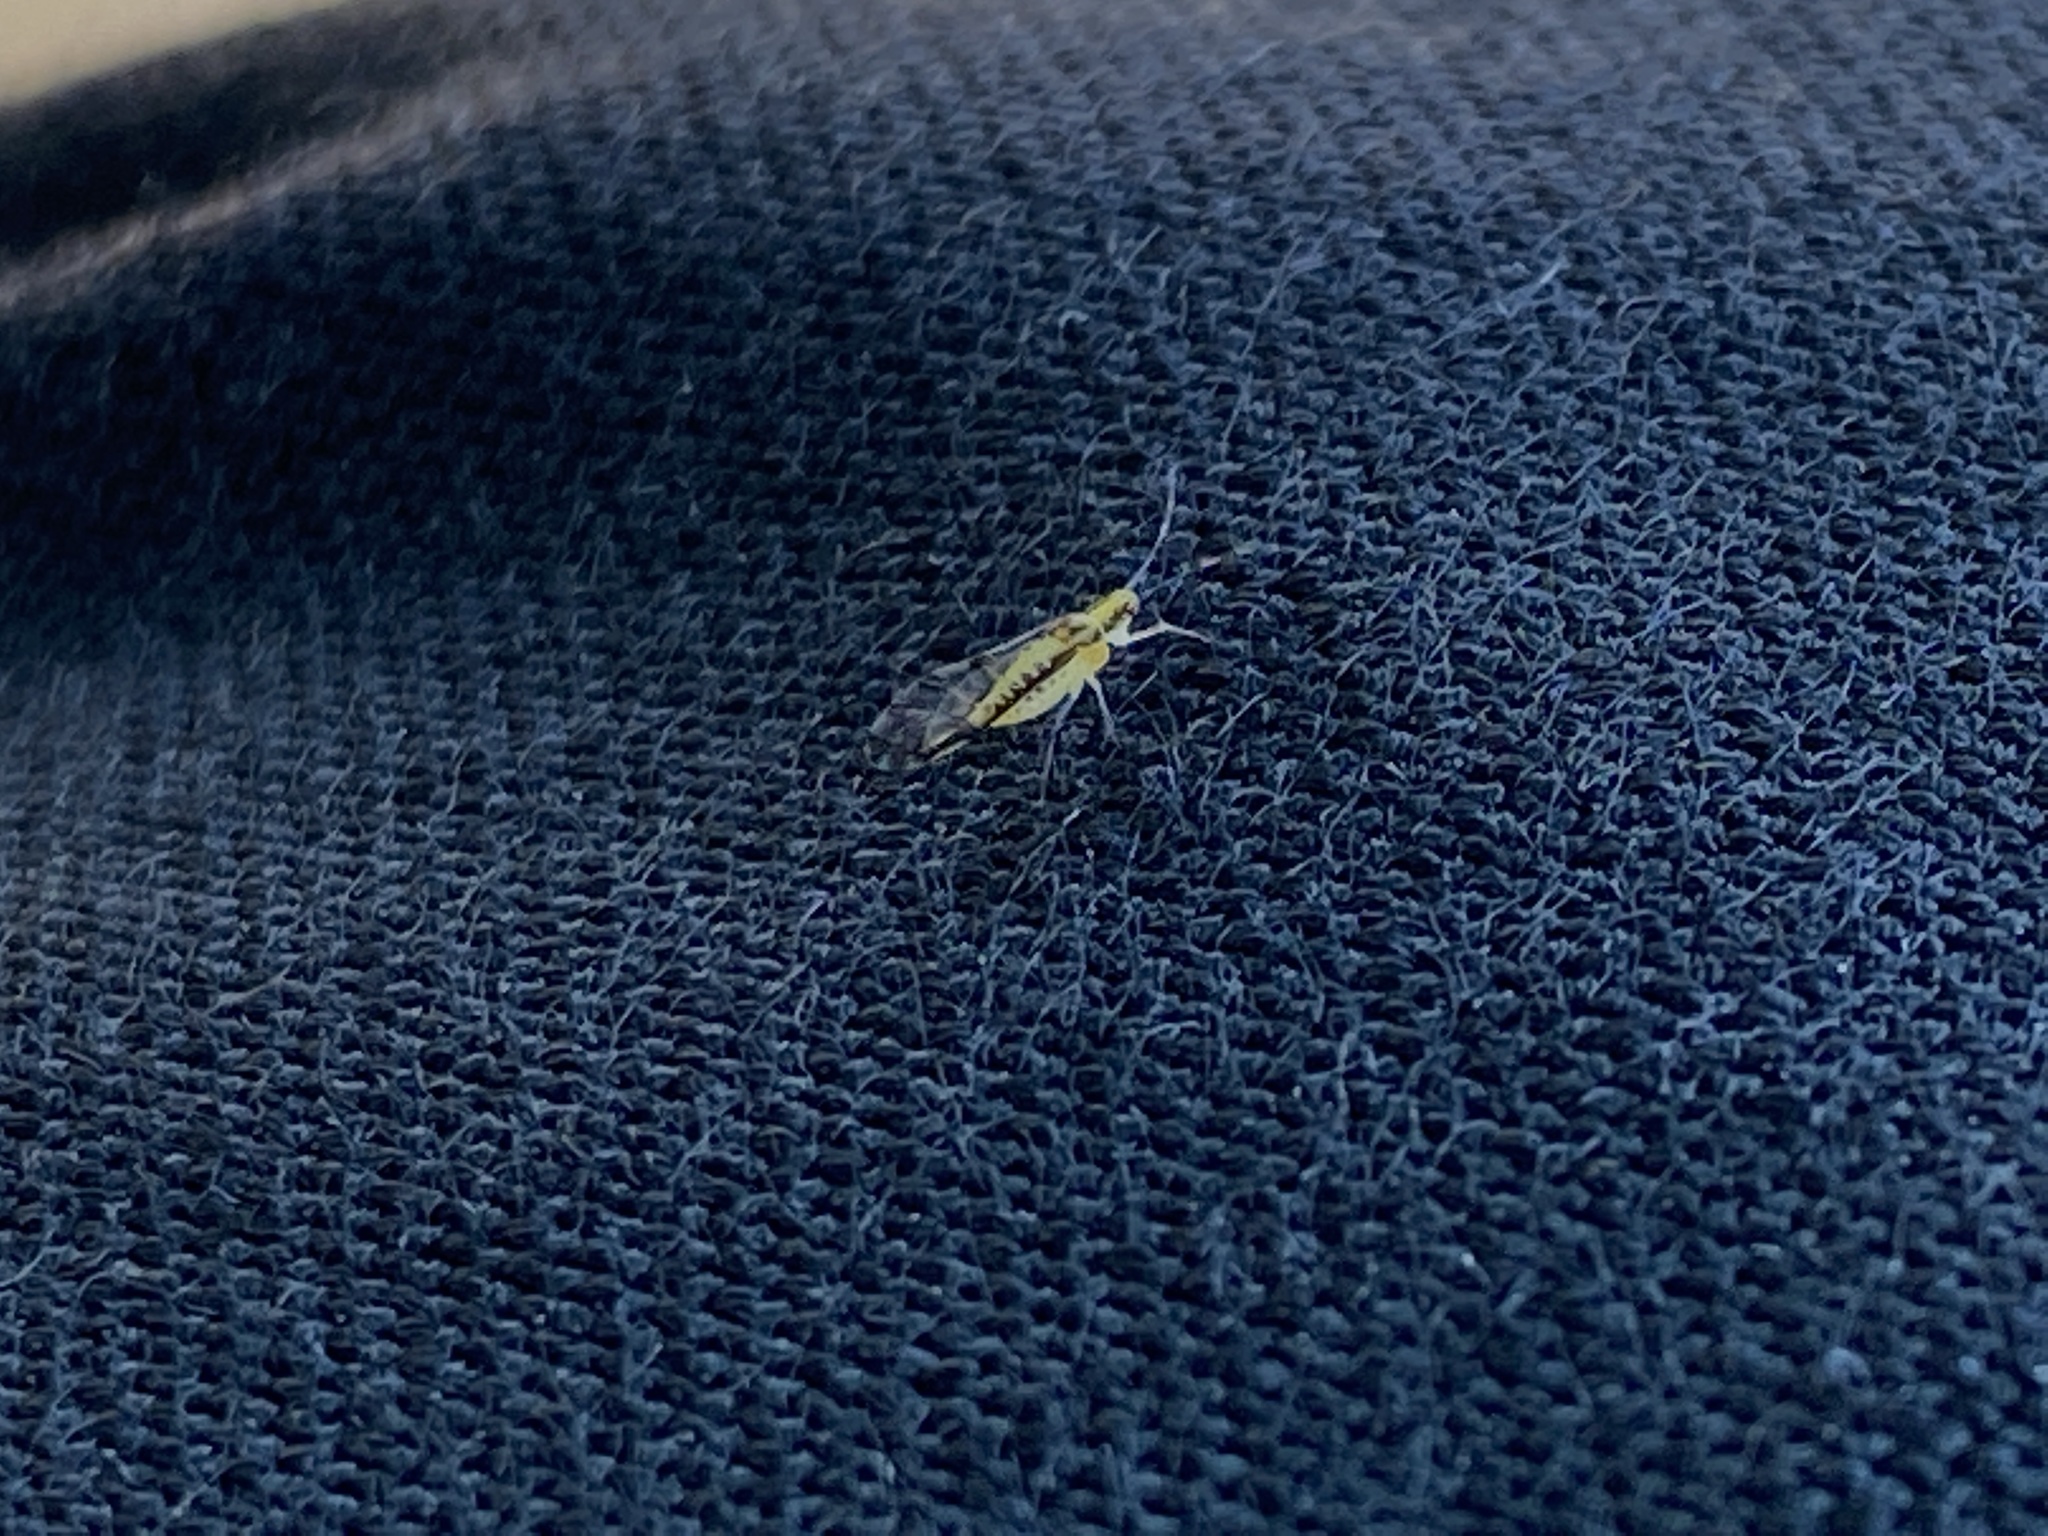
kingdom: Animalia
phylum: Arthropoda
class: Insecta
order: Hemiptera
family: Aphididae
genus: Eucallipterus
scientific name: Eucallipterus tiliae
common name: Aphid
